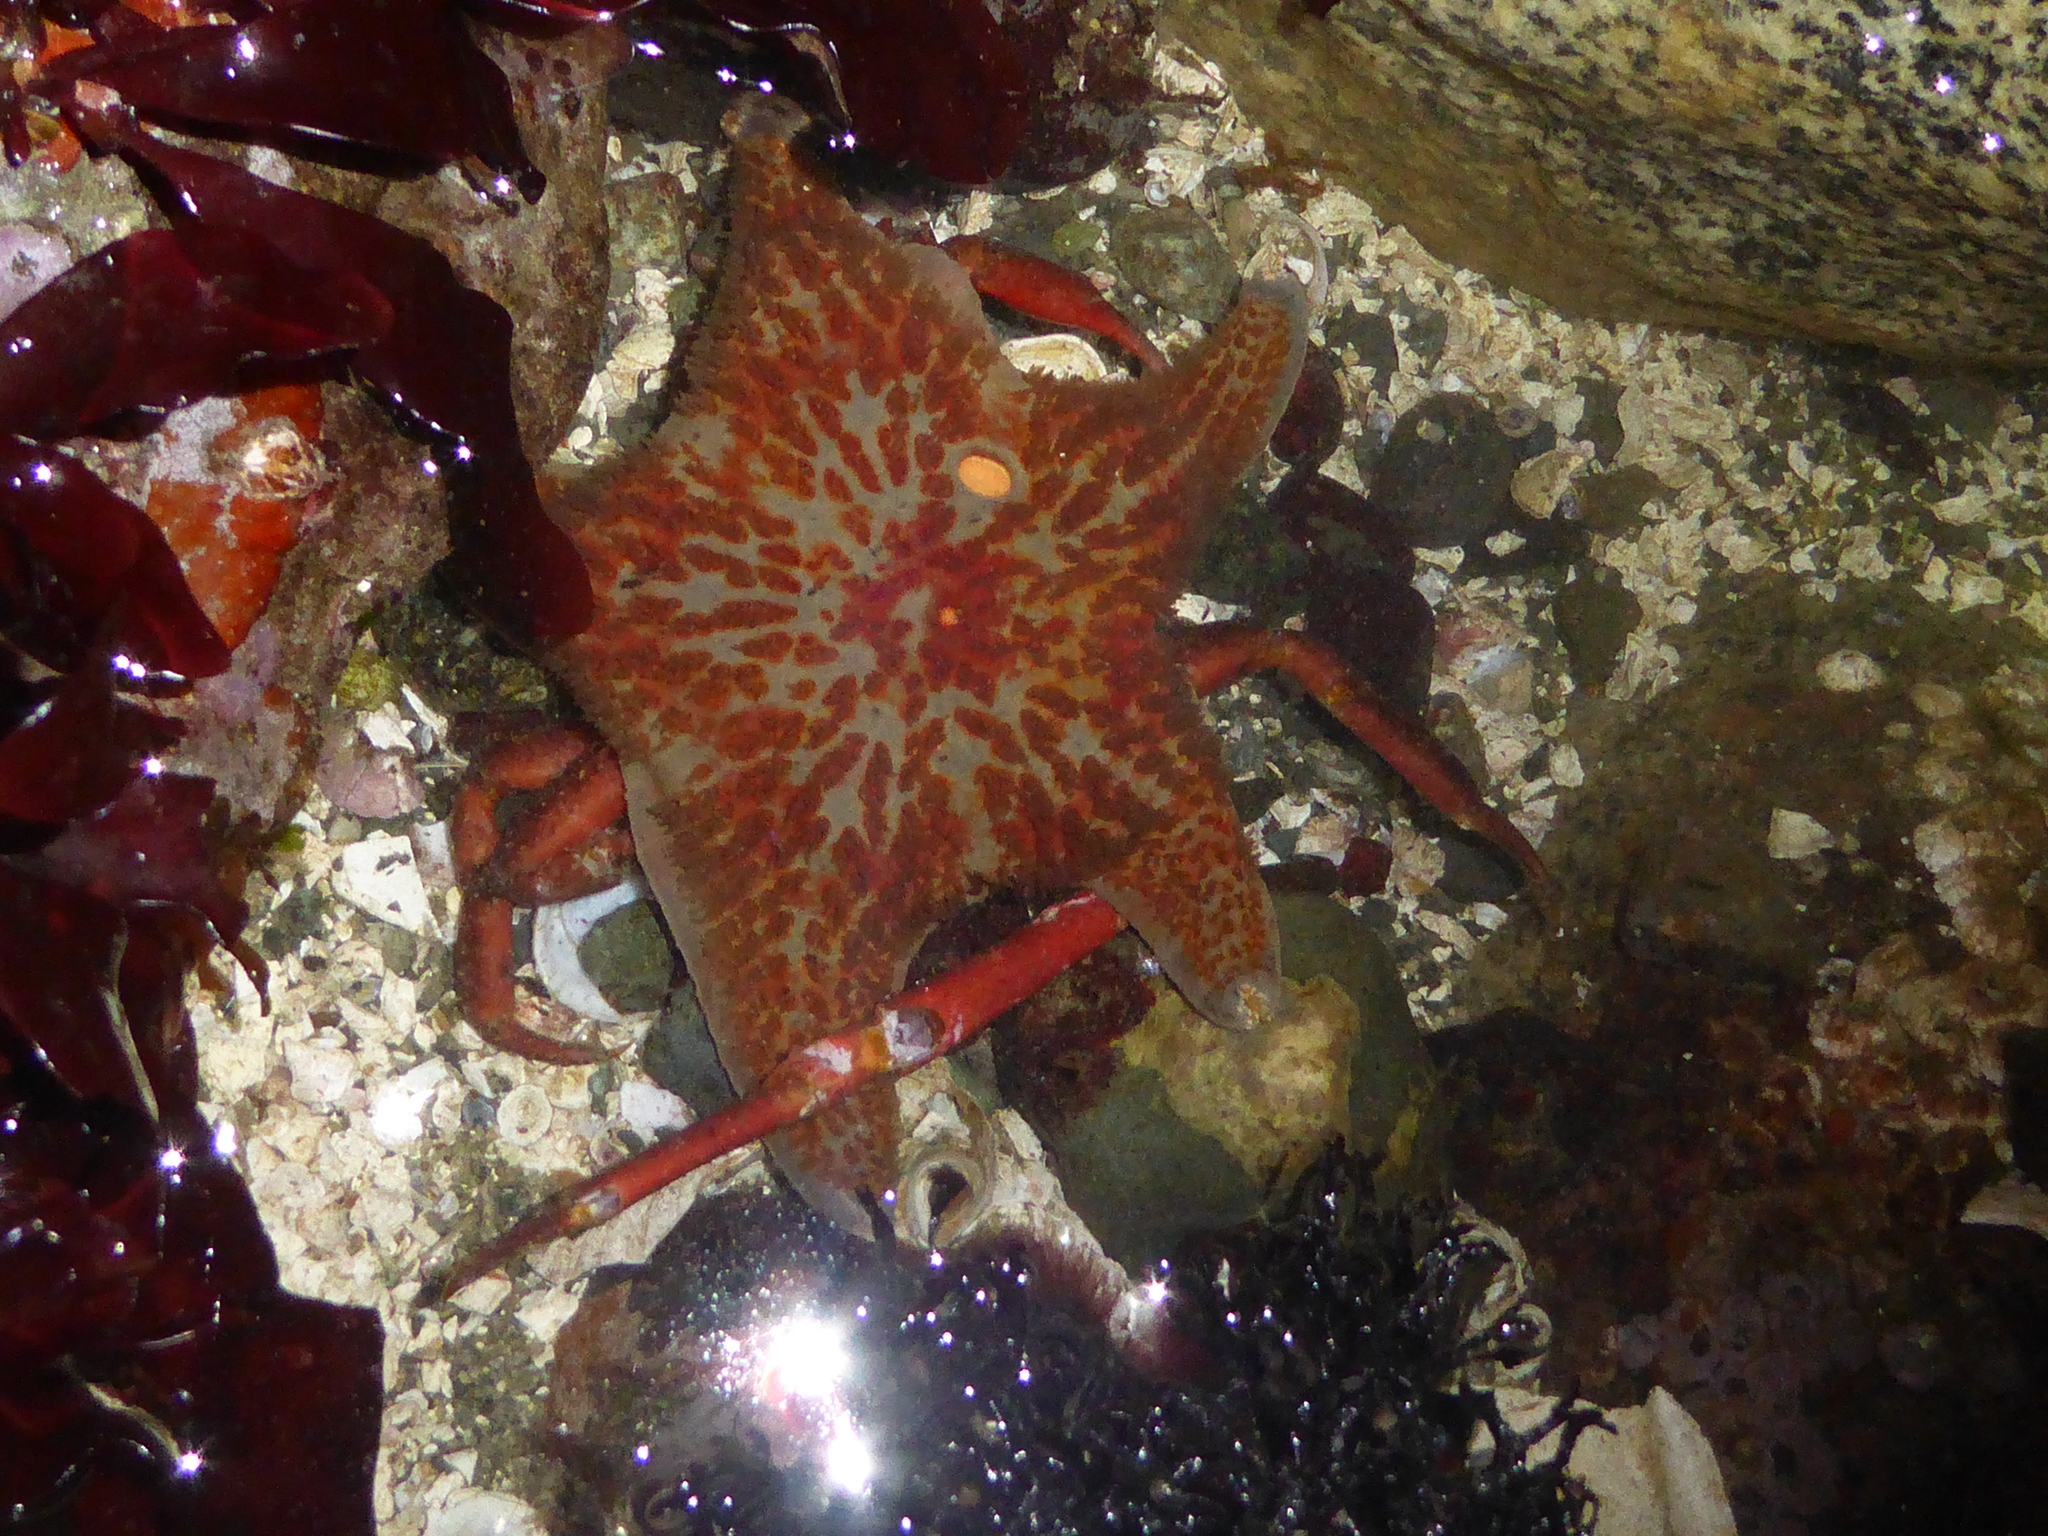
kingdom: Animalia
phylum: Echinodermata
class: Asteroidea
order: Valvatida
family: Asteropseidae
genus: Dermasterias
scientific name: Dermasterias imbricata
